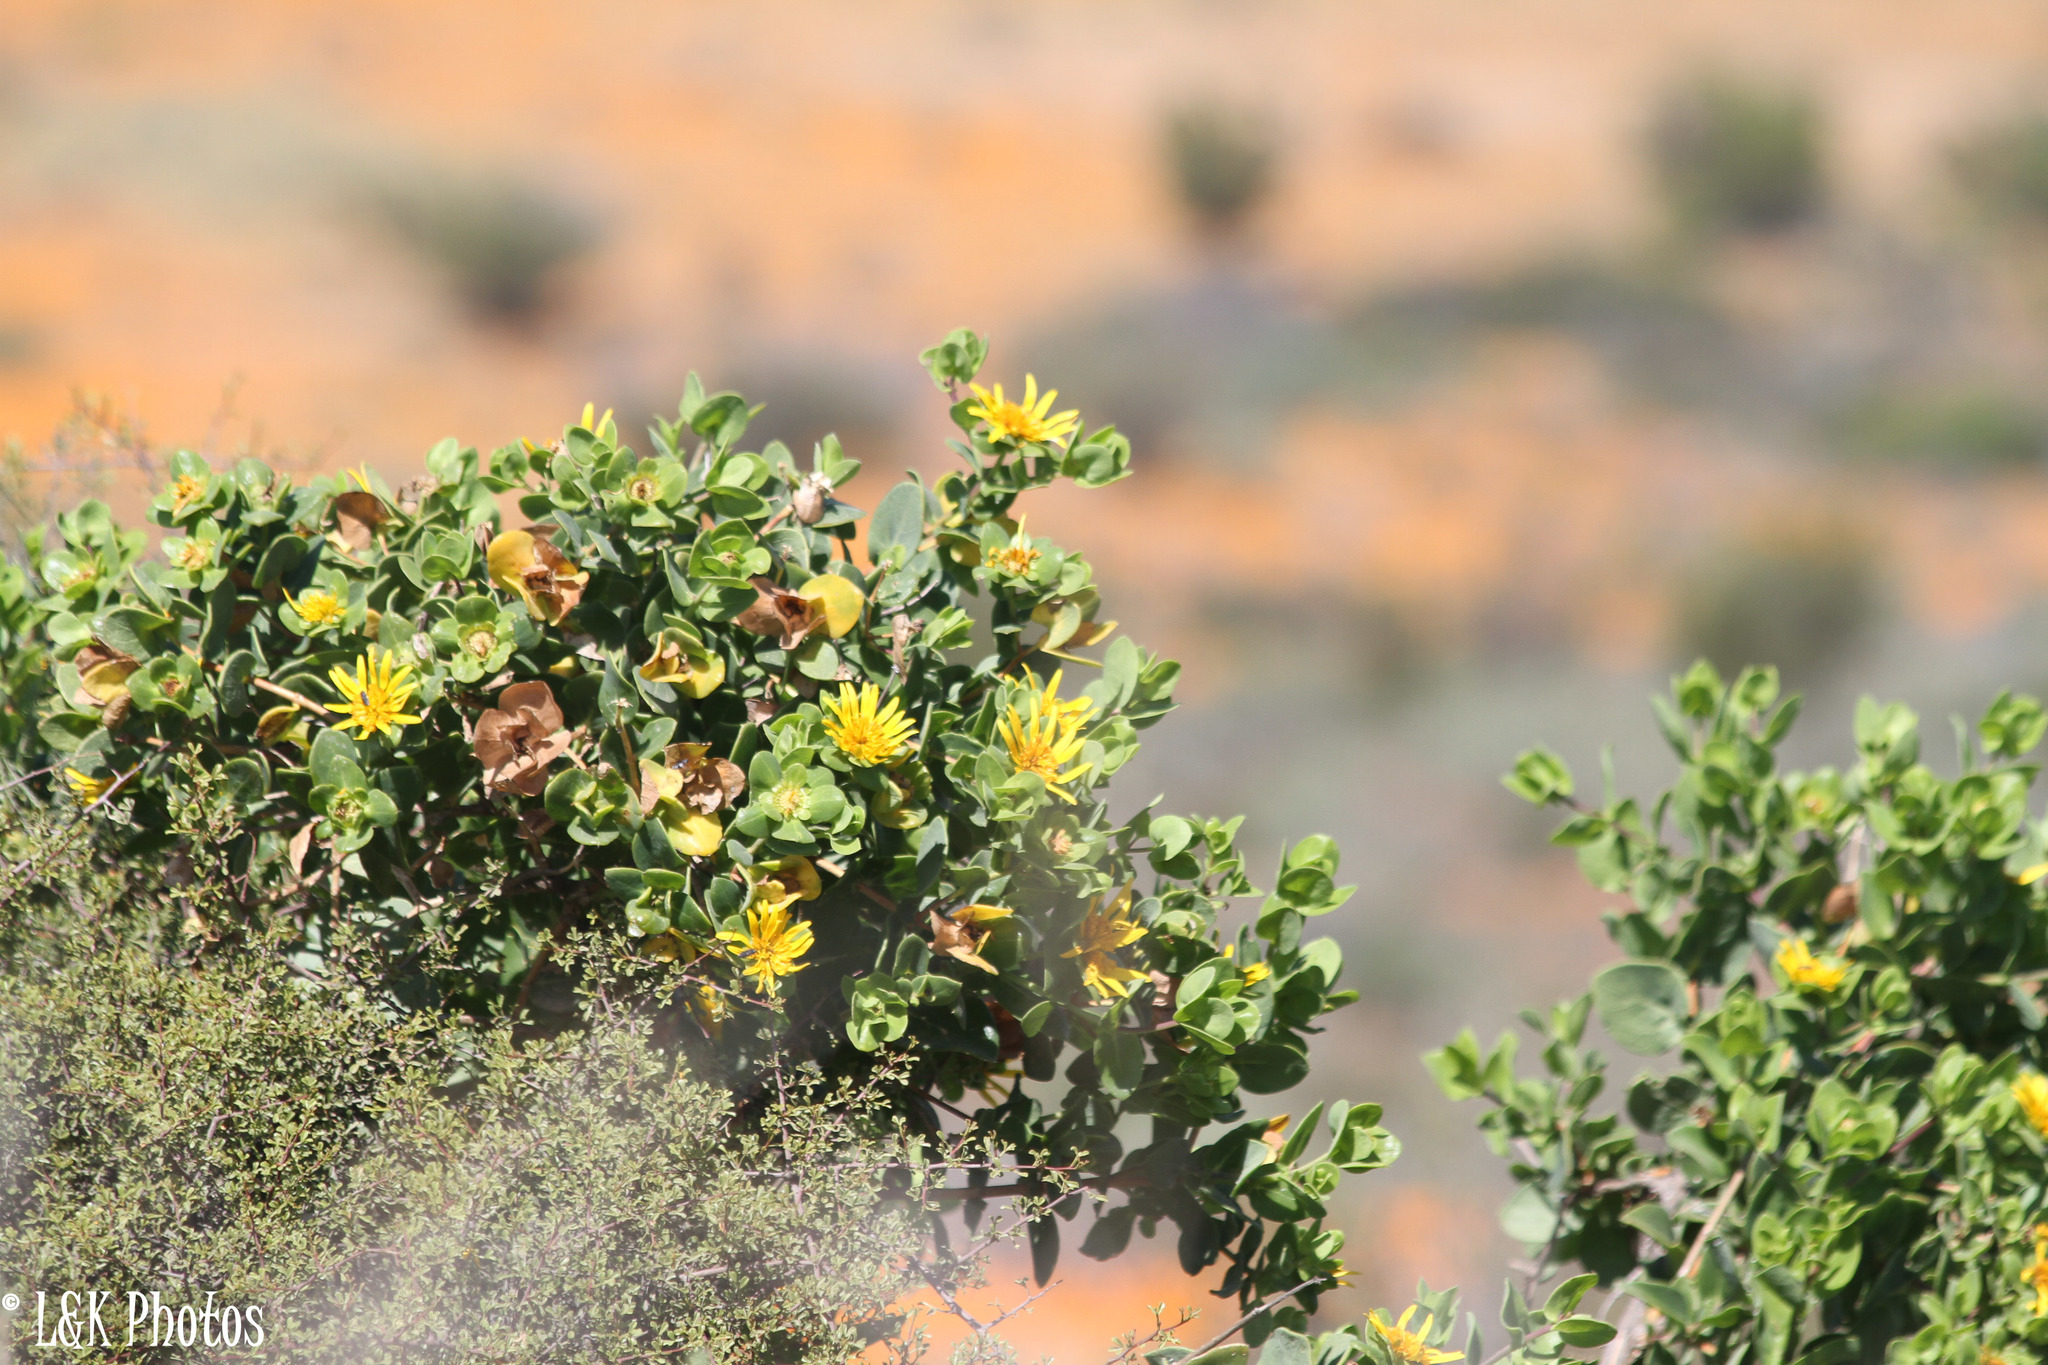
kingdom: Plantae
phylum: Tracheophyta
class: Magnoliopsida
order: Asterales
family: Asteraceae
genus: Didelta
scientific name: Didelta spinosa
